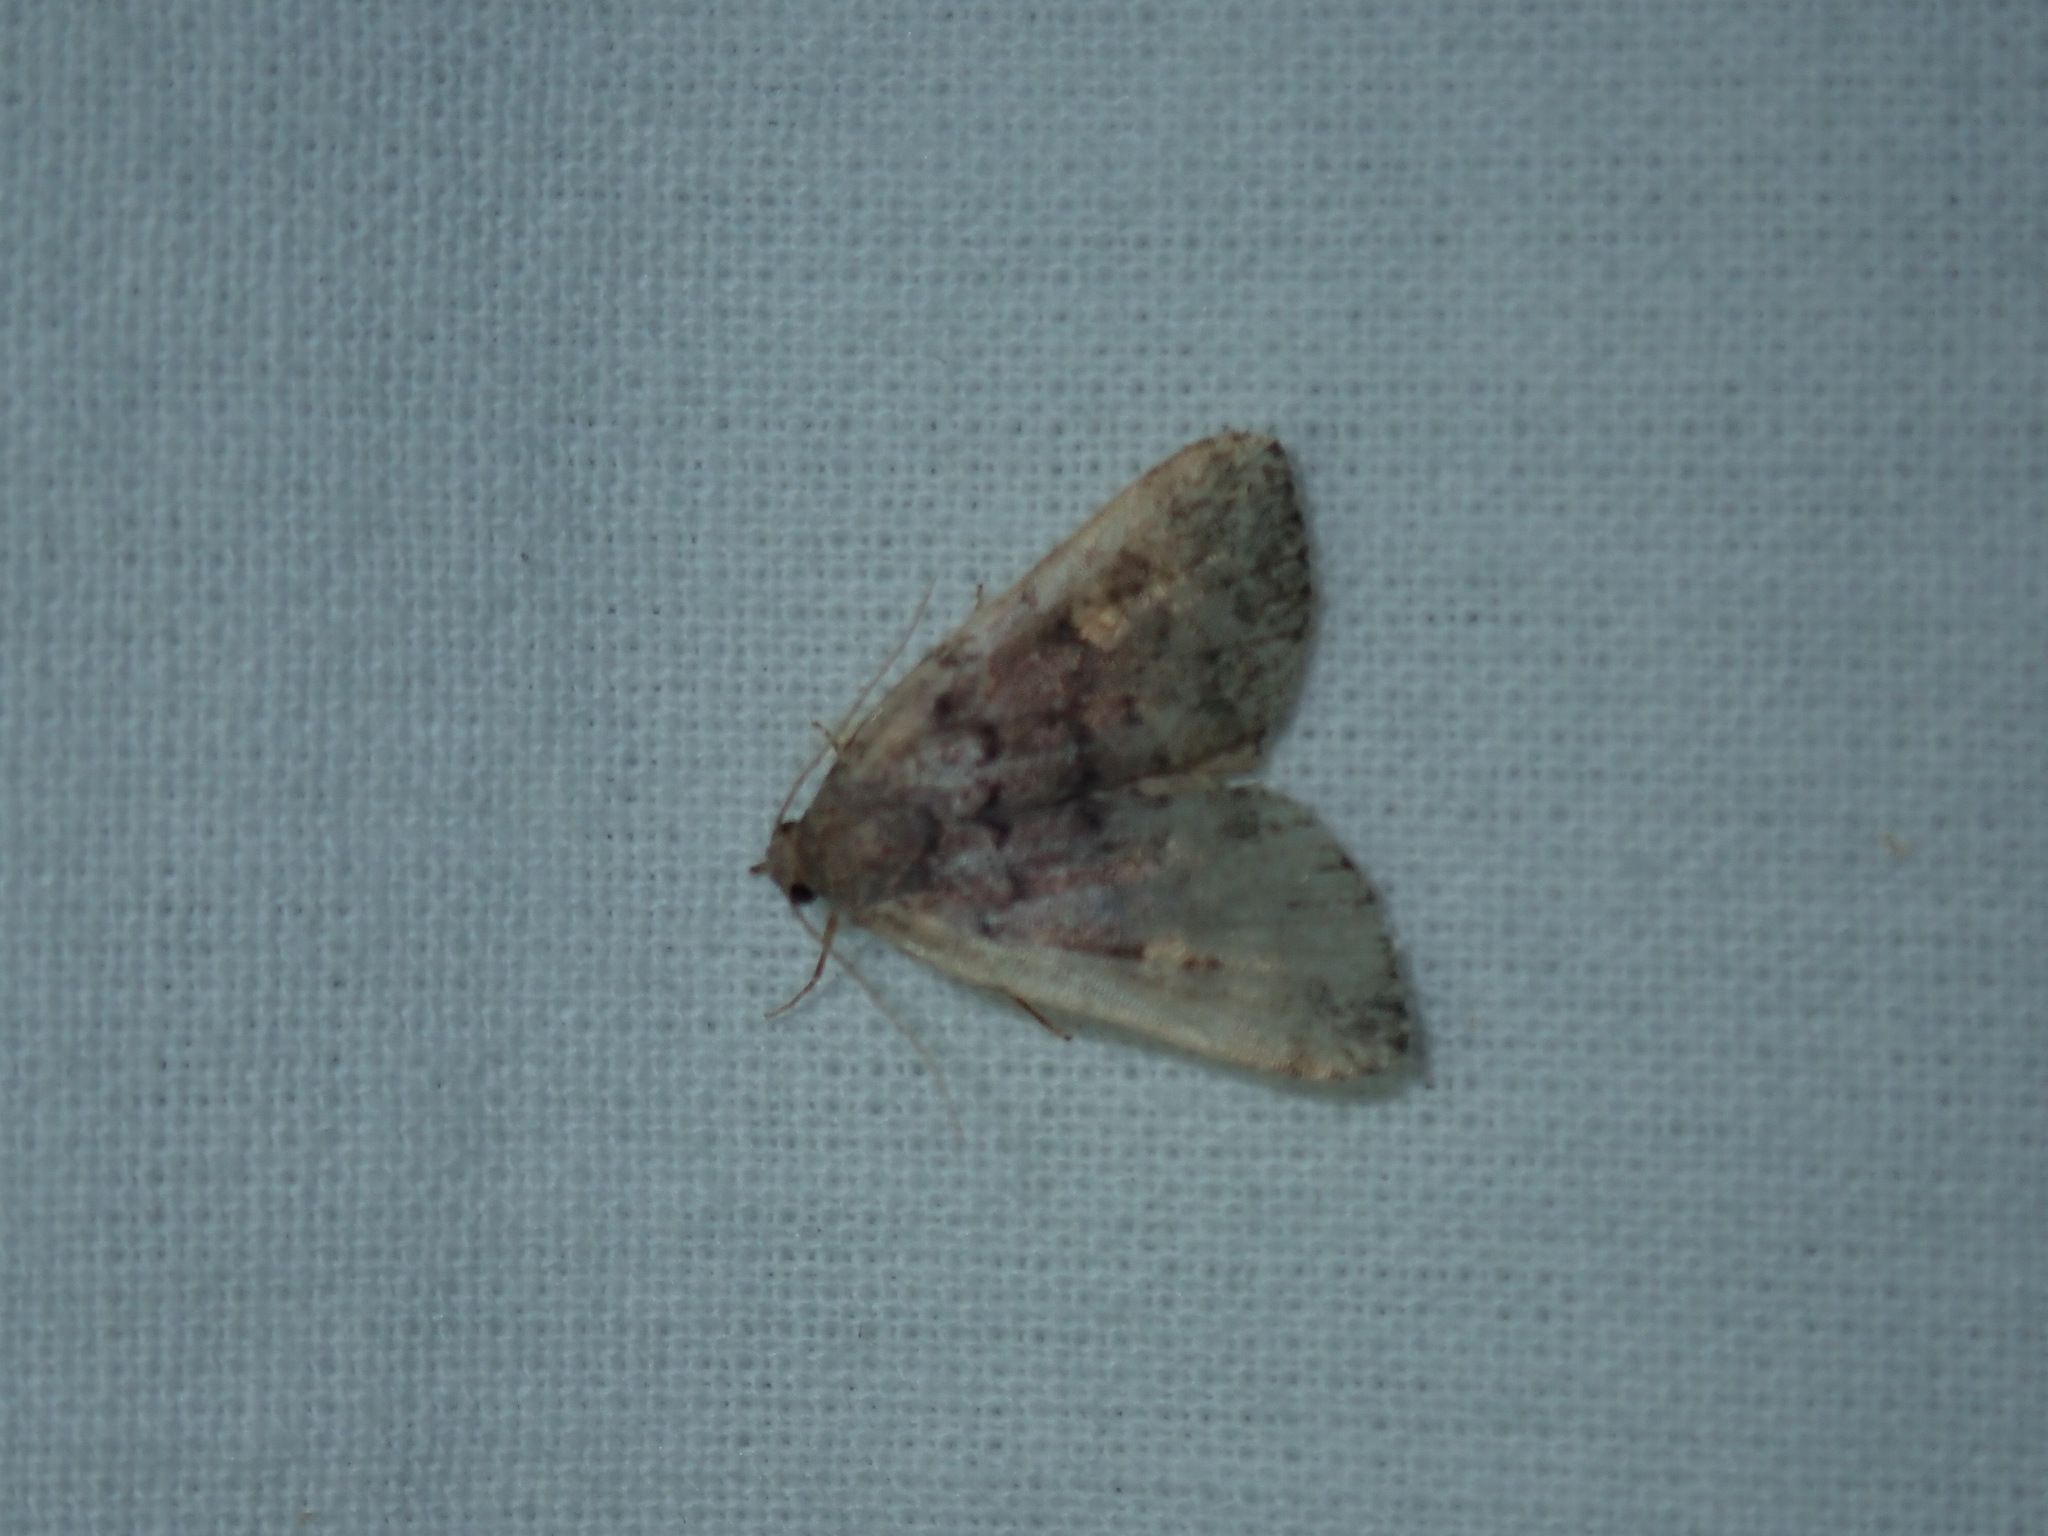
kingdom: Animalia
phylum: Arthropoda
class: Insecta
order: Lepidoptera
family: Erebidae
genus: Idia
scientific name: Idia aemula
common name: Common idia moth
